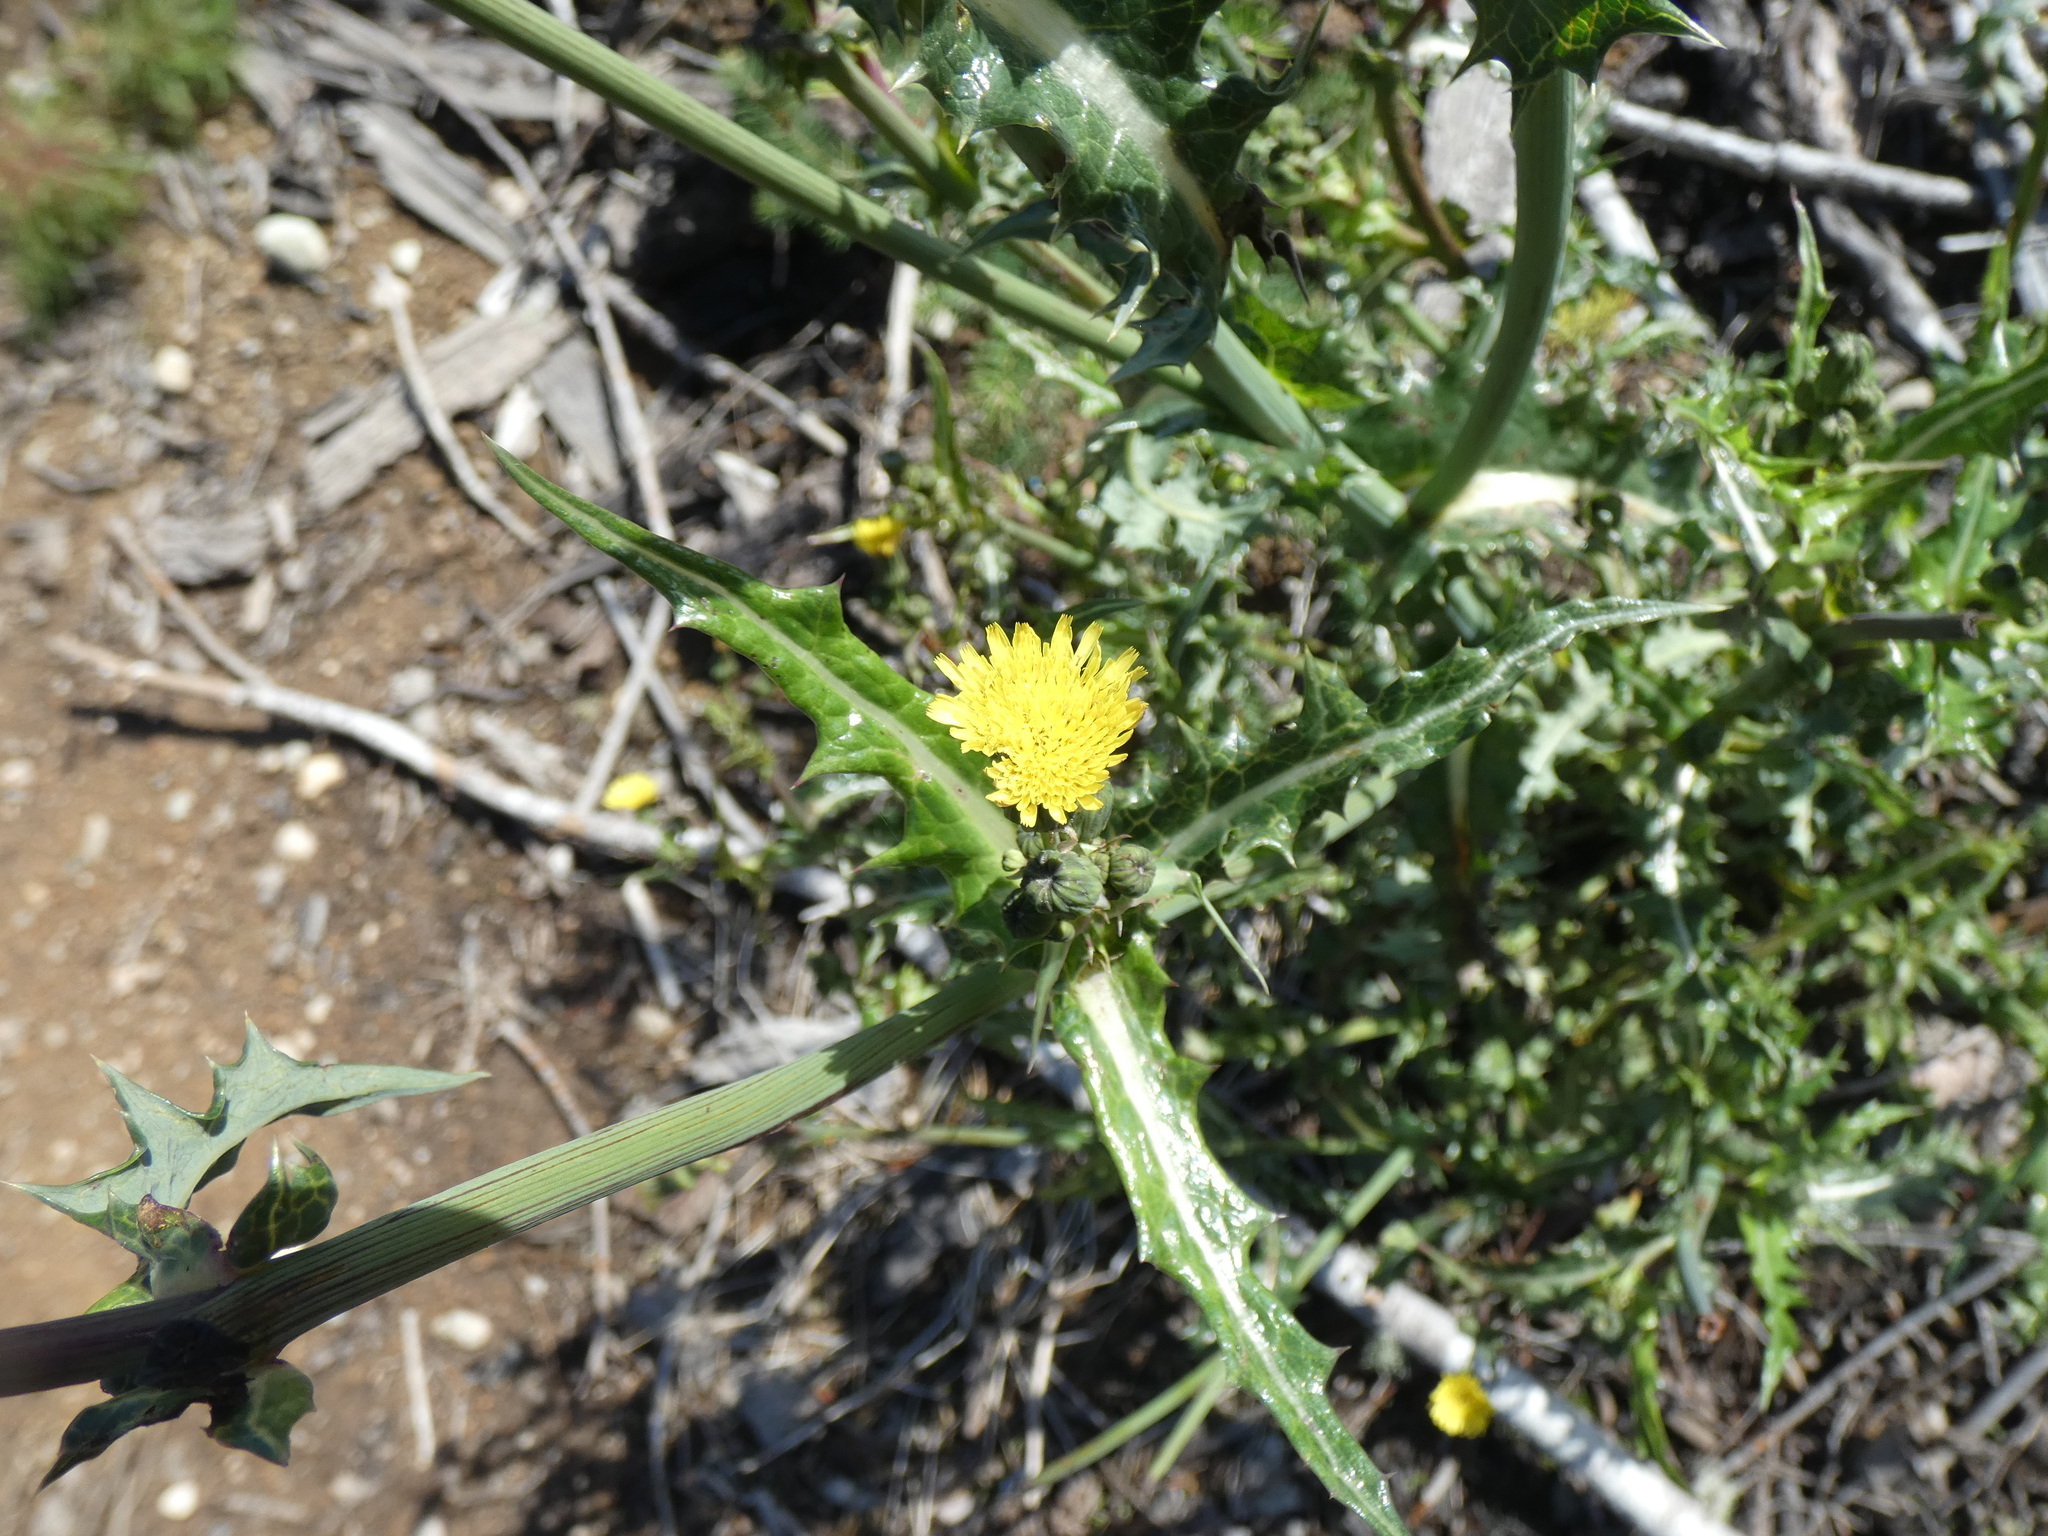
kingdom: Plantae
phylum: Tracheophyta
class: Magnoliopsida
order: Asterales
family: Asteraceae
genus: Sonchus
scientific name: Sonchus asper
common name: Prickly sow-thistle
